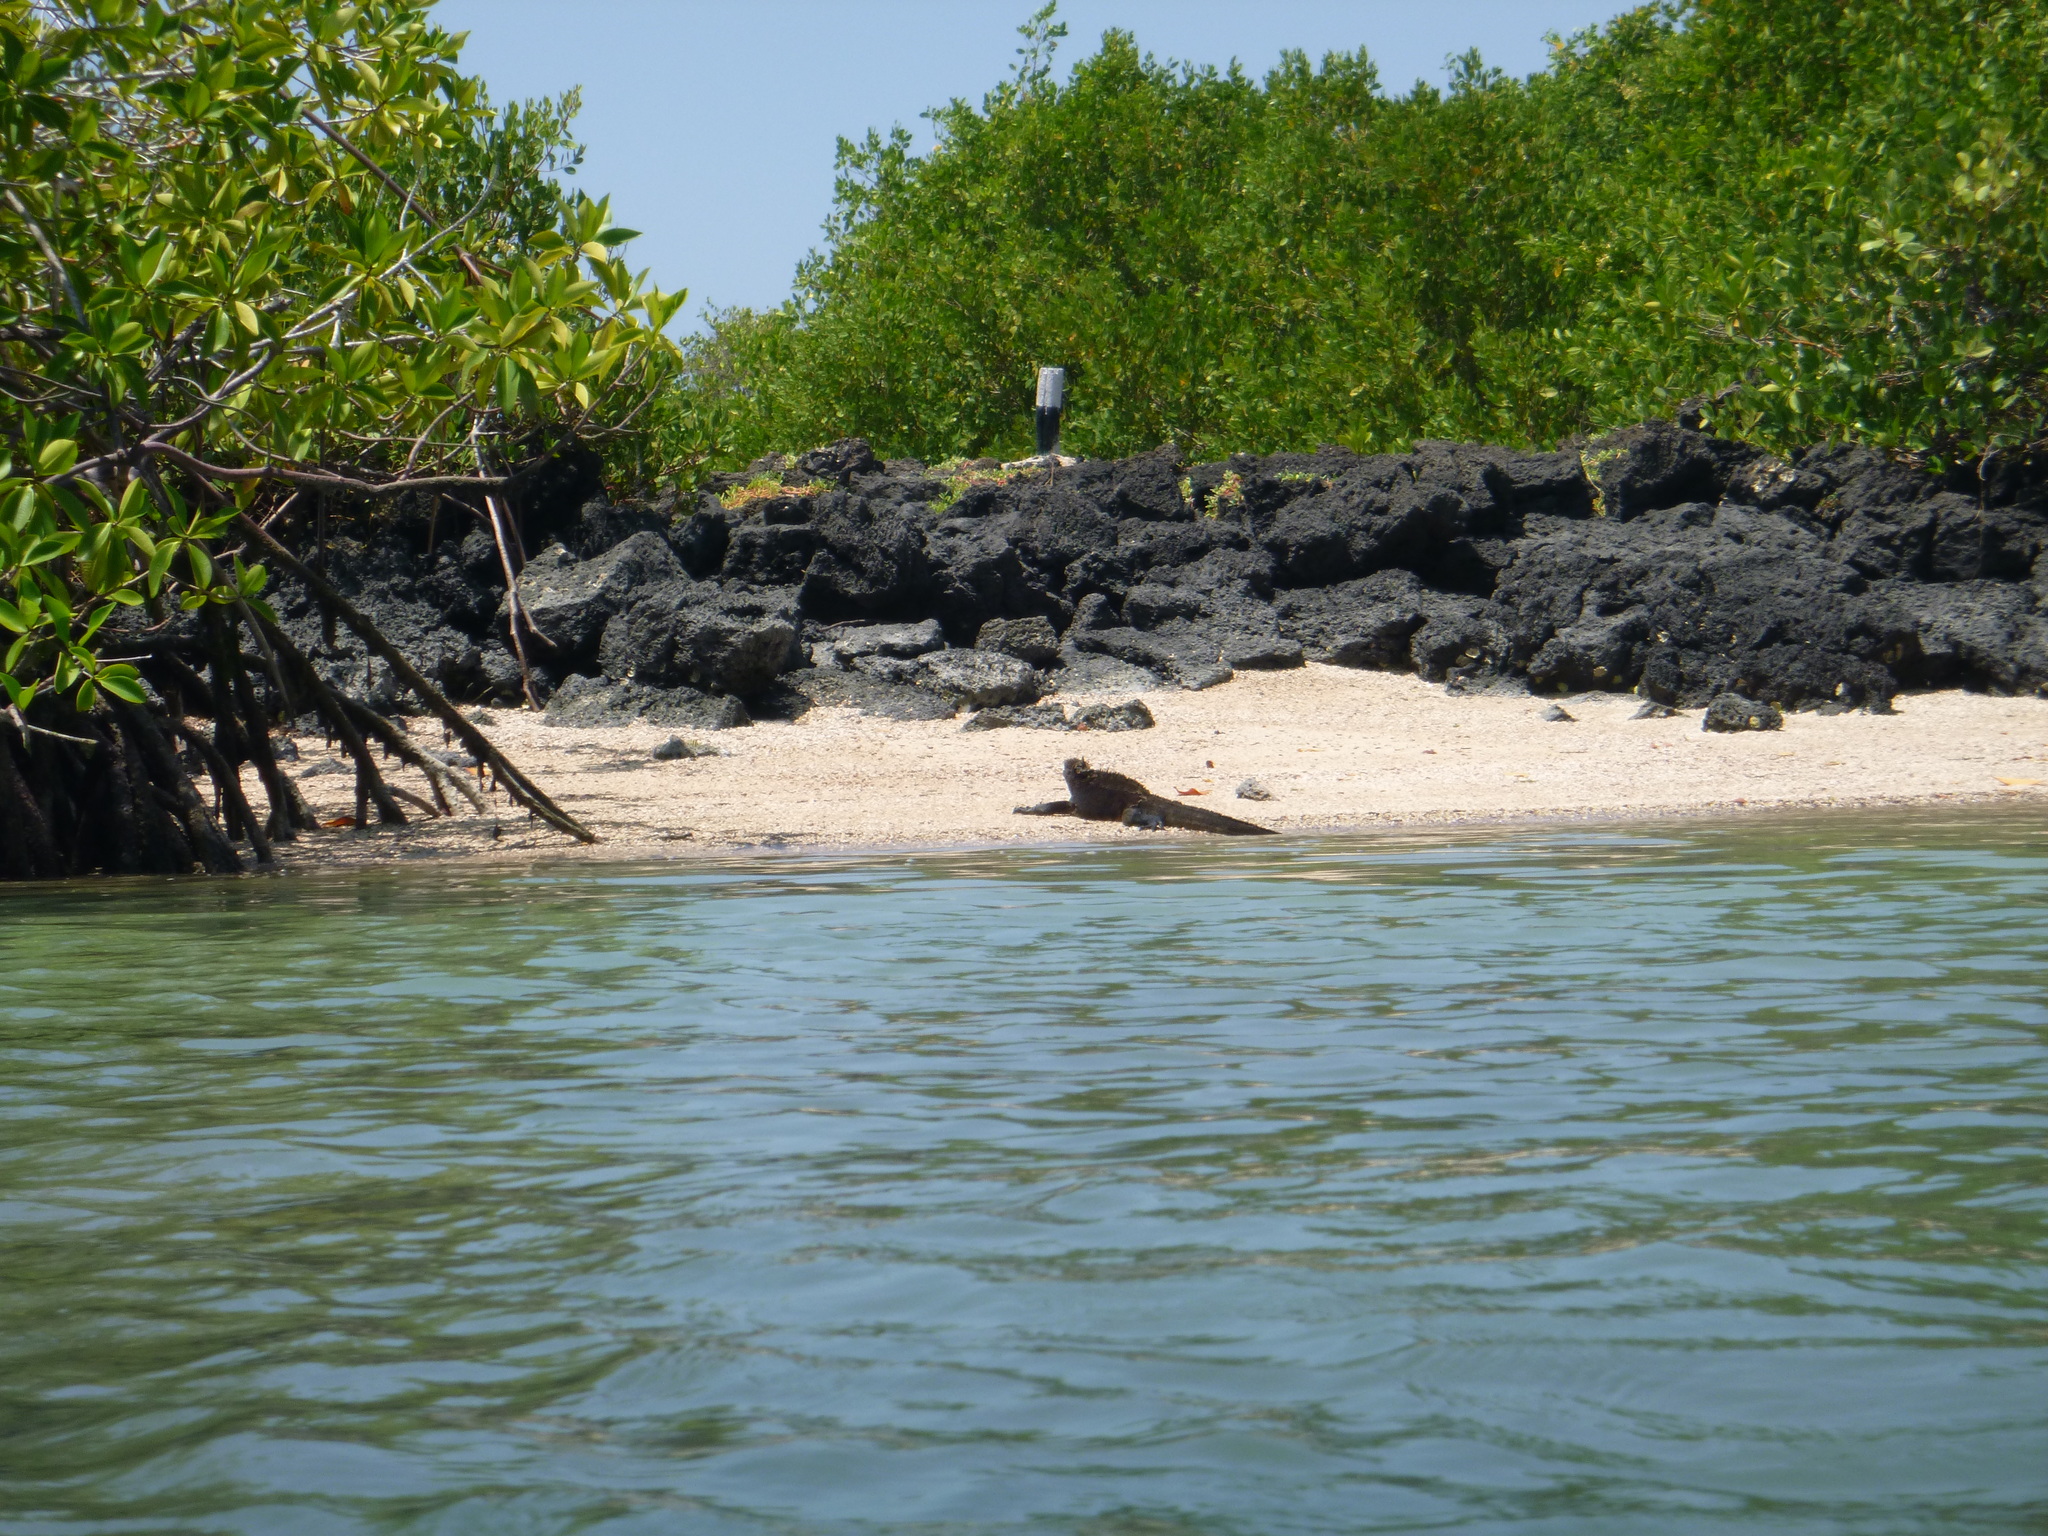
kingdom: Animalia
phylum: Chordata
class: Squamata
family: Iguanidae
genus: Amblyrhynchus
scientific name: Amblyrhynchus cristatus
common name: Marine iguana
